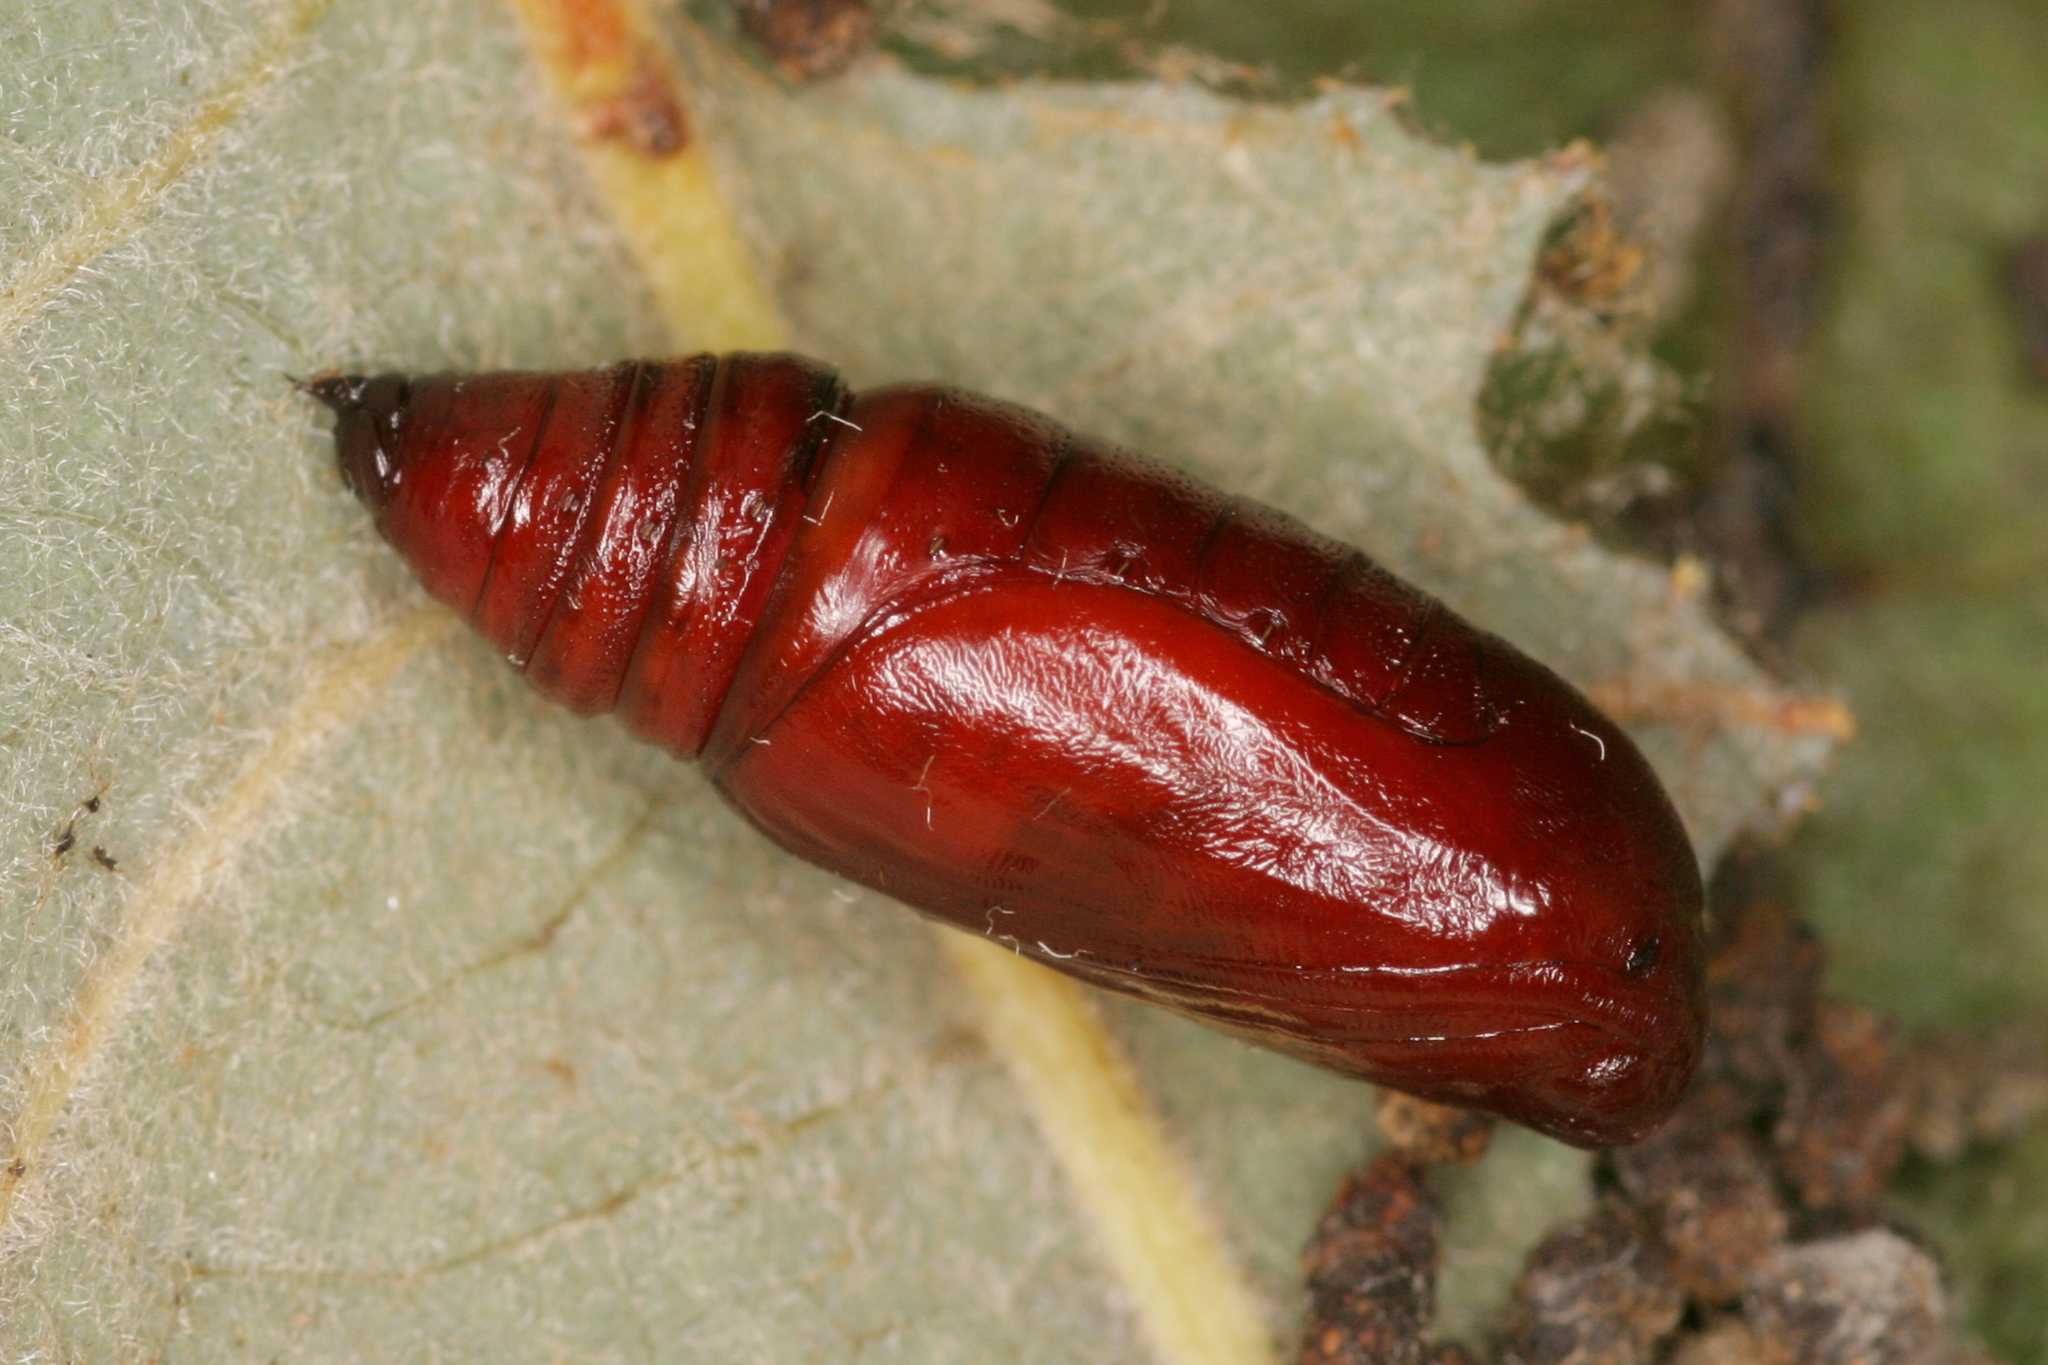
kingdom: Animalia
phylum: Arthropoda
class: Insecta
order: Lepidoptera
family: Geometridae
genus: Rheumaptera
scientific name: Rheumaptera undulata
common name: Scallop shell
